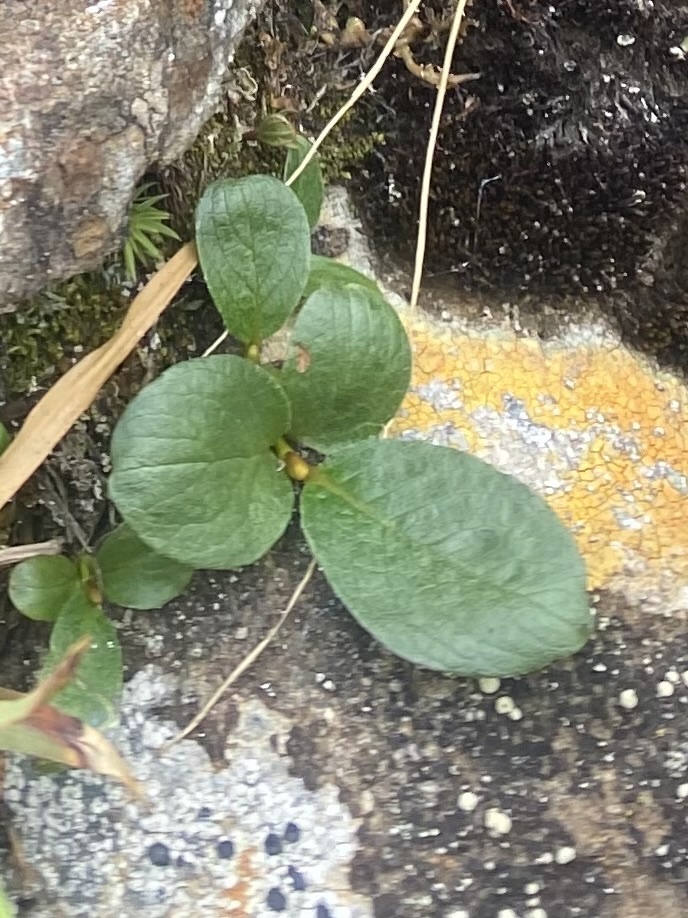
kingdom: Plantae
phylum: Tracheophyta
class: Magnoliopsida
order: Malpighiales
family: Salicaceae
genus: Salix
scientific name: Salix polaris
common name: Polar willow
